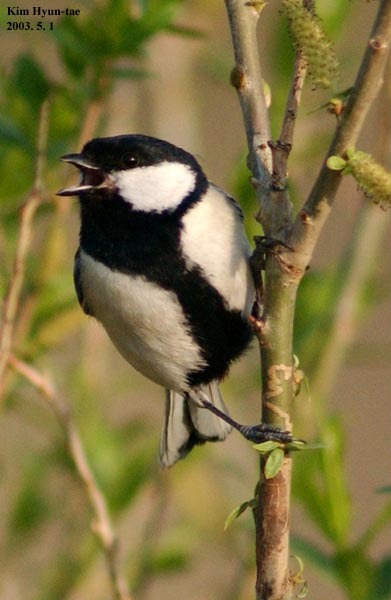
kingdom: Animalia
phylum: Chordata
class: Aves
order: Passeriformes
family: Paridae
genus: Parus
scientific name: Parus minor
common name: Japanese tit
